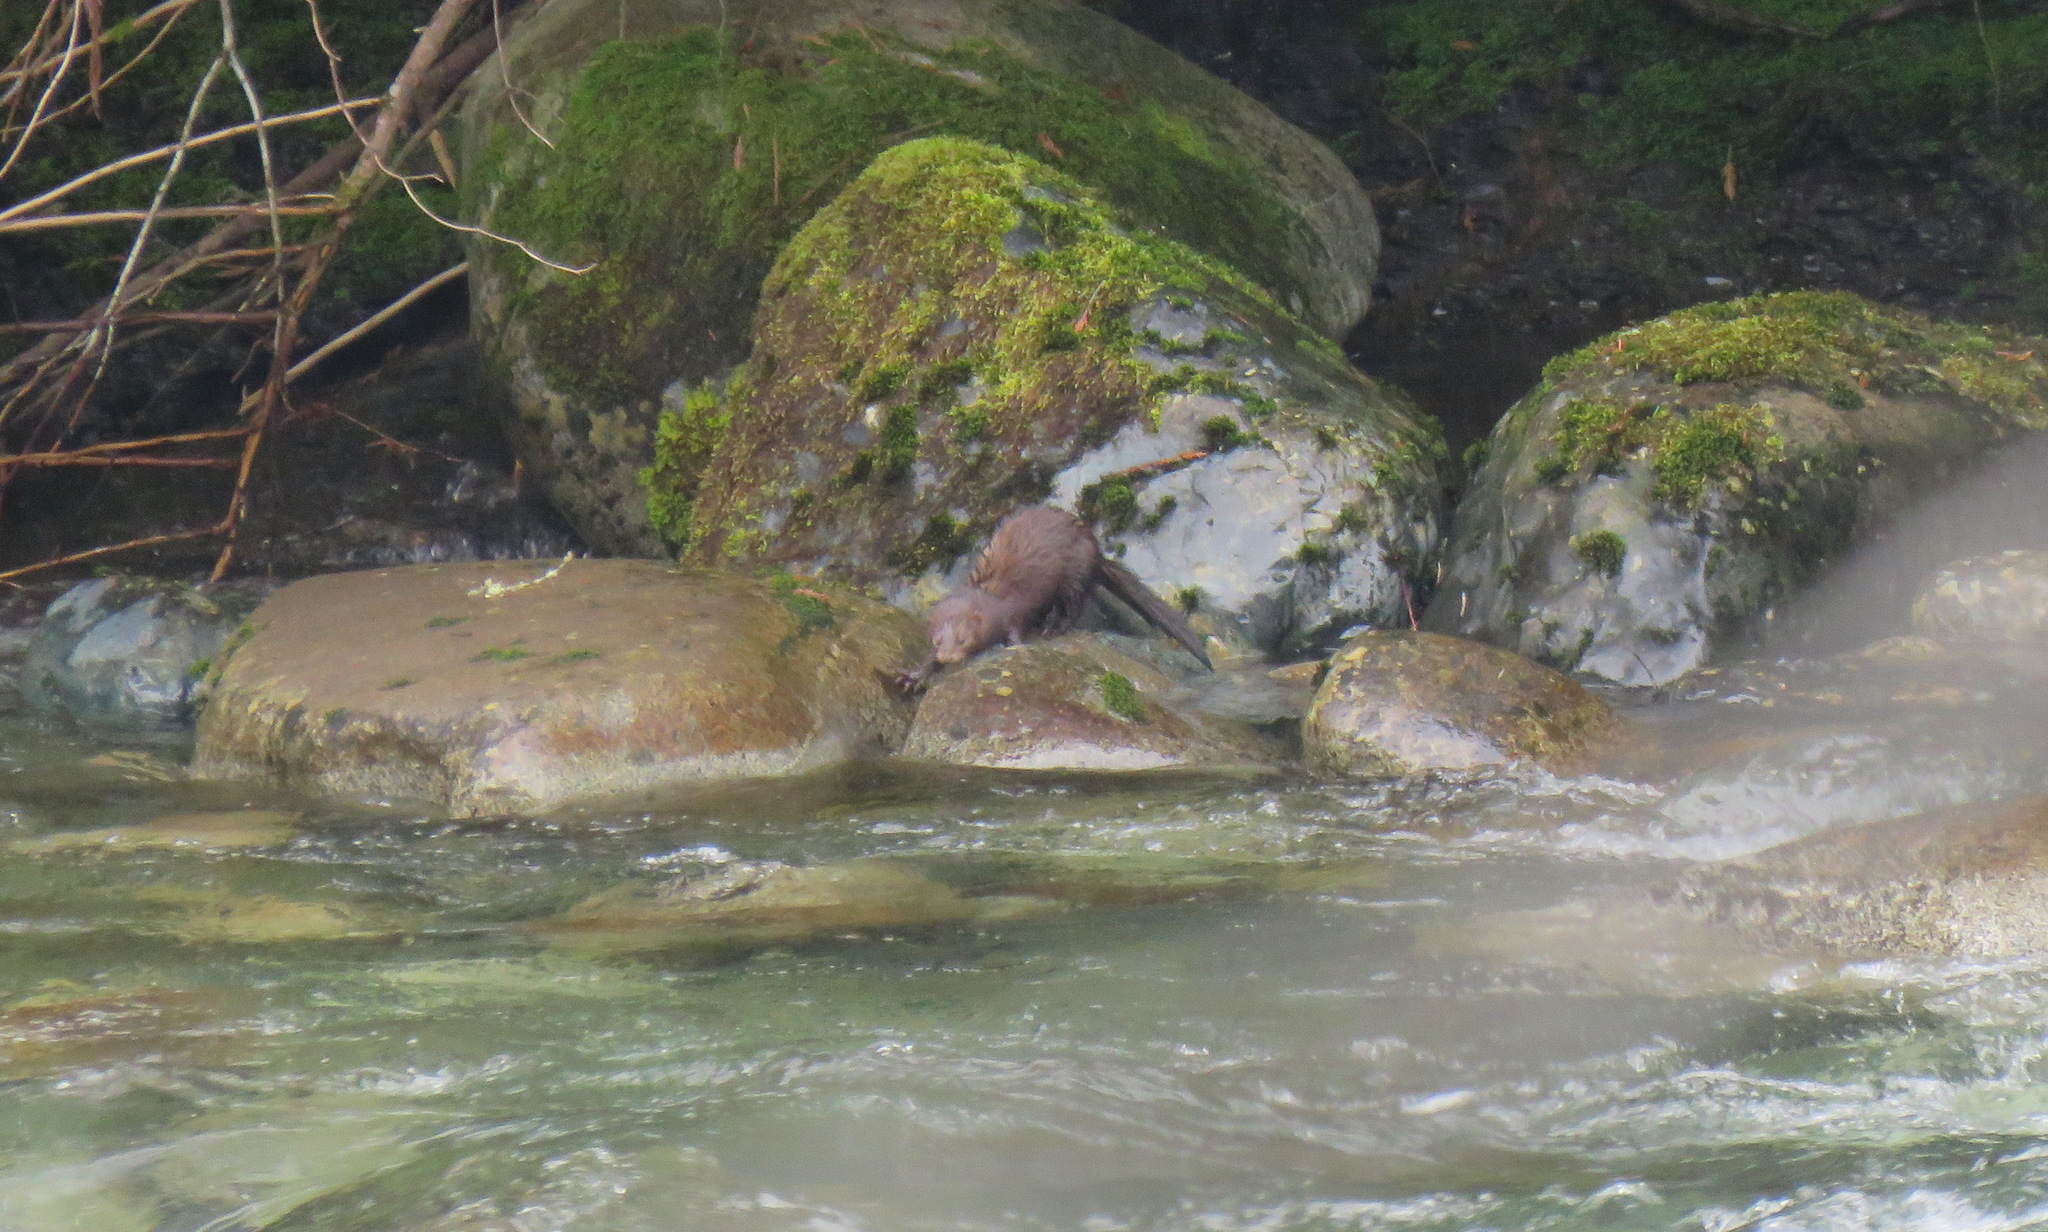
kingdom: Animalia
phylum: Chordata
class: Mammalia
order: Carnivora
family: Mustelidae
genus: Mustela
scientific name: Mustela
